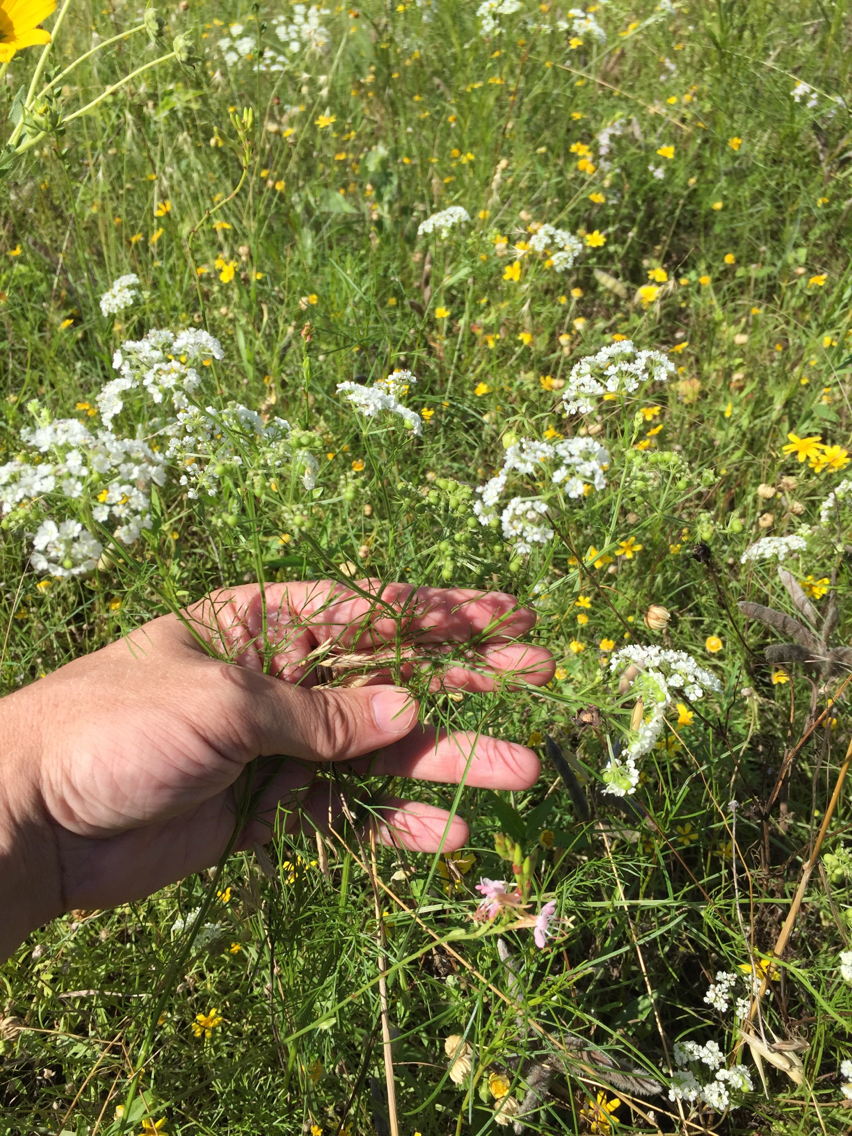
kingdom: Plantae
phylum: Tracheophyta
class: Magnoliopsida
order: Apiales
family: Apiaceae
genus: Atrema
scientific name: Atrema americanum
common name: Prairie-bishop
